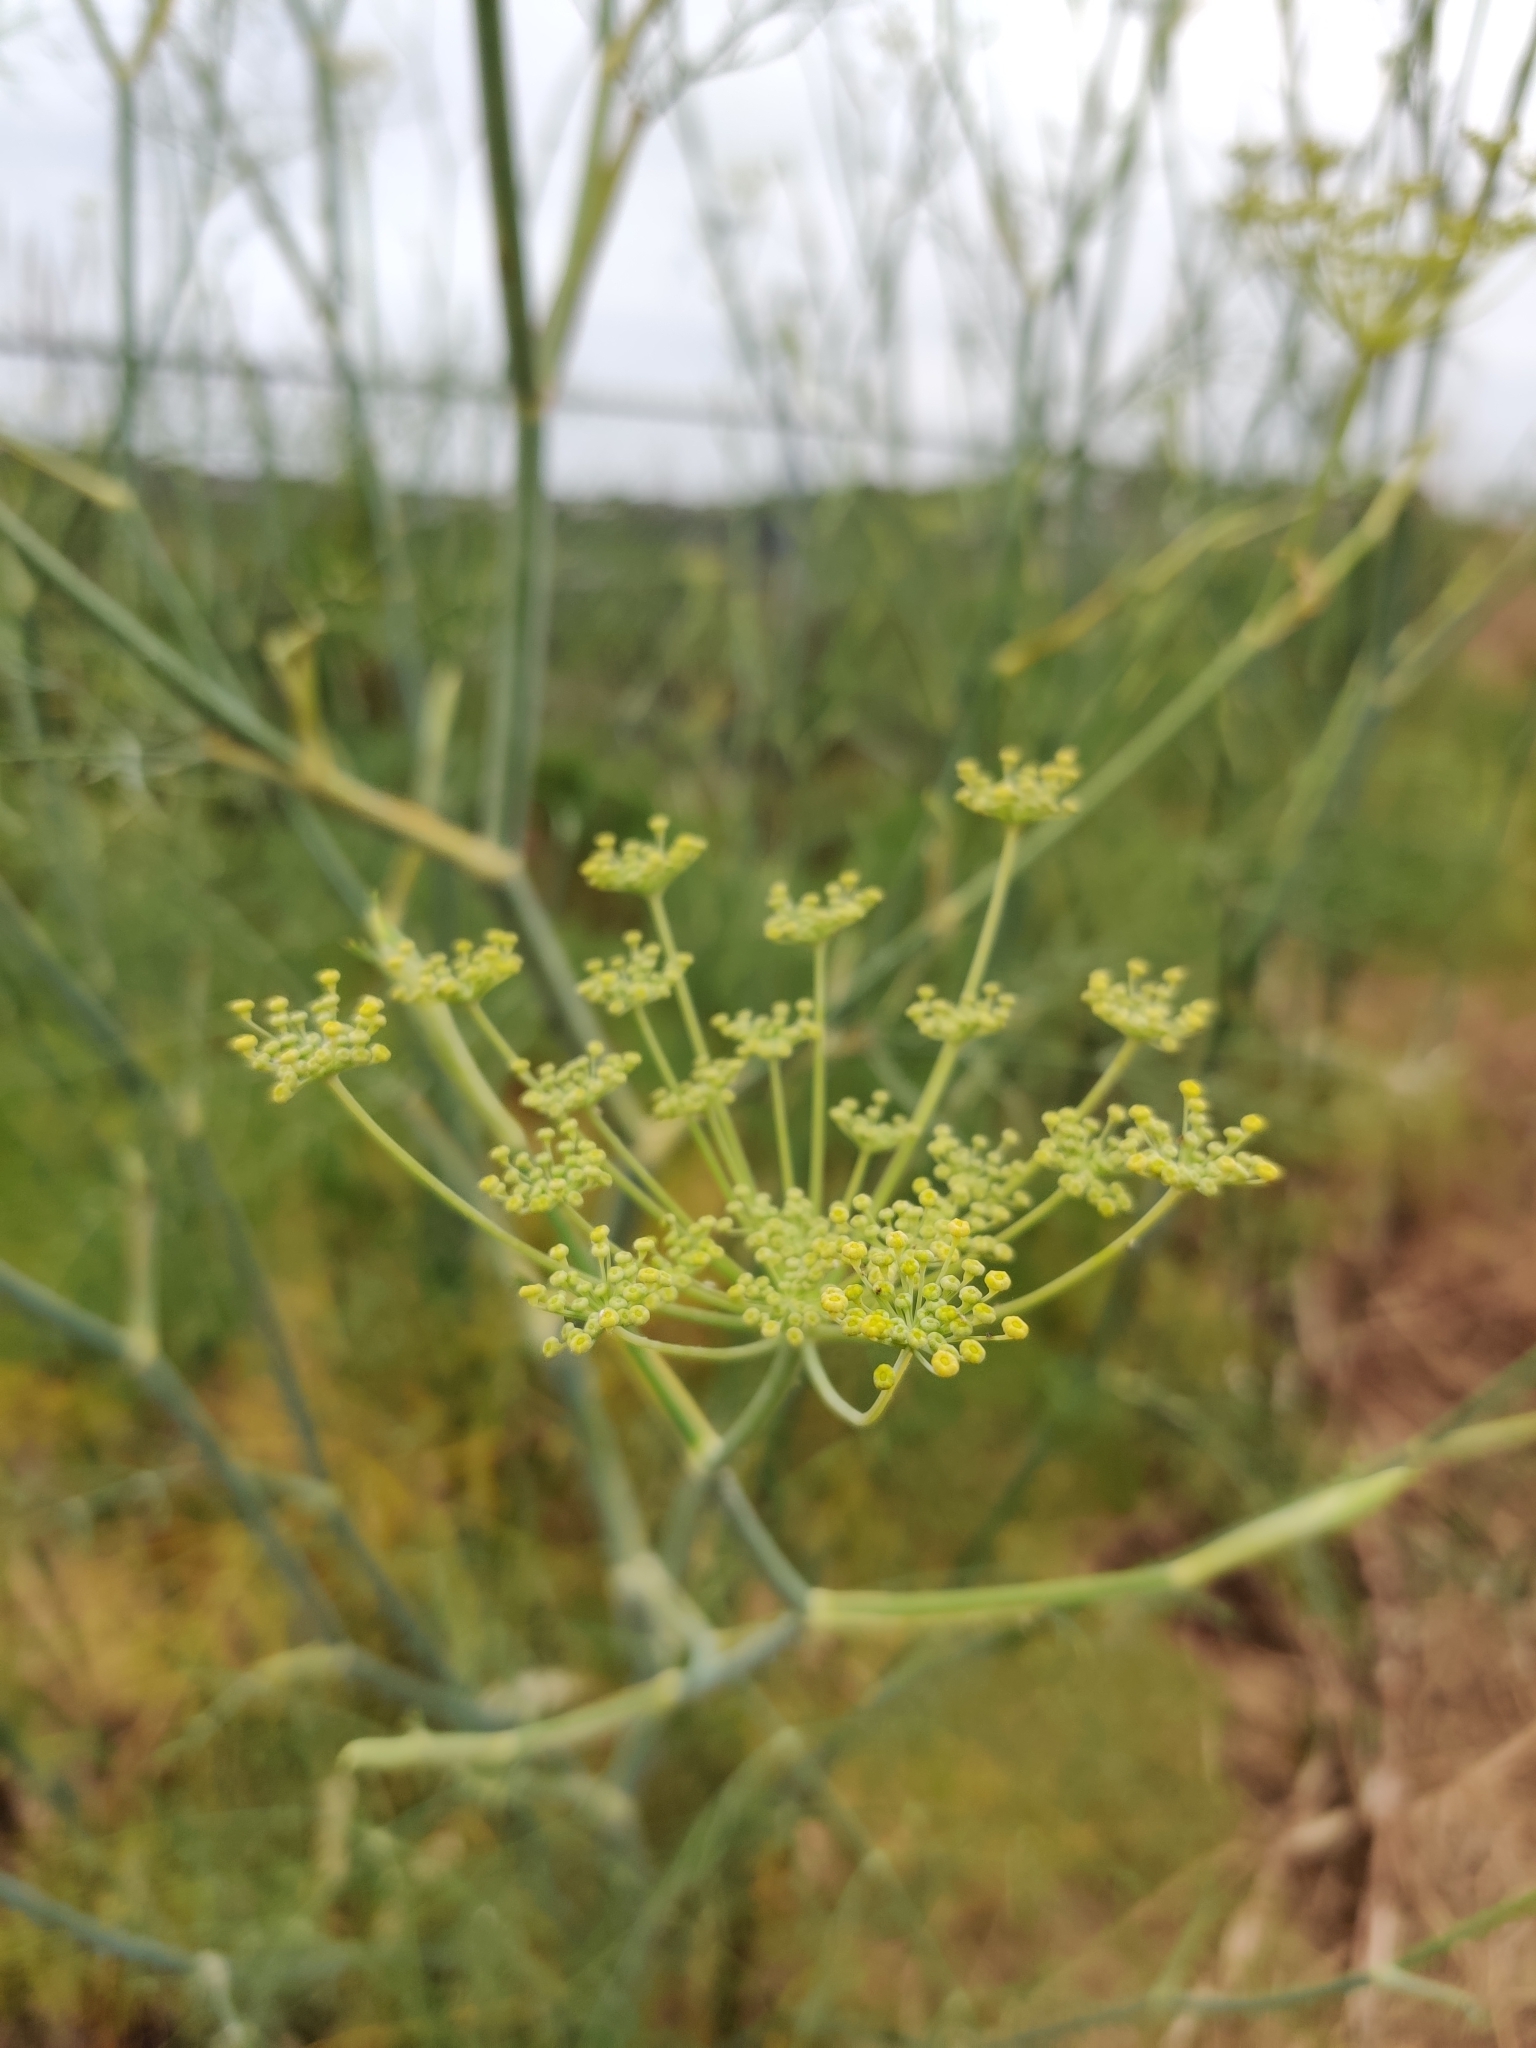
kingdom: Plantae
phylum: Tracheophyta
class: Magnoliopsida
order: Apiales
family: Apiaceae
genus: Foeniculum
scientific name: Foeniculum vulgare
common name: Fennel
